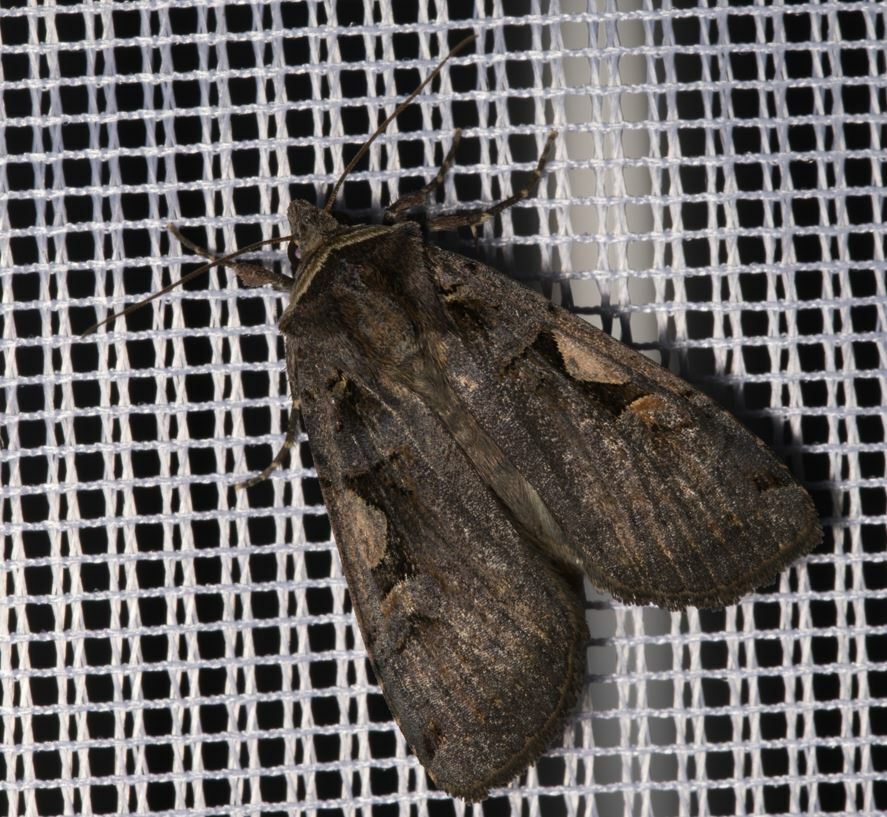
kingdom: Animalia
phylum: Arthropoda
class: Insecta
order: Lepidoptera
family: Noctuidae
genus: Xestia
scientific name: Xestia c-nigrum
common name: Setaceous hebrew character
